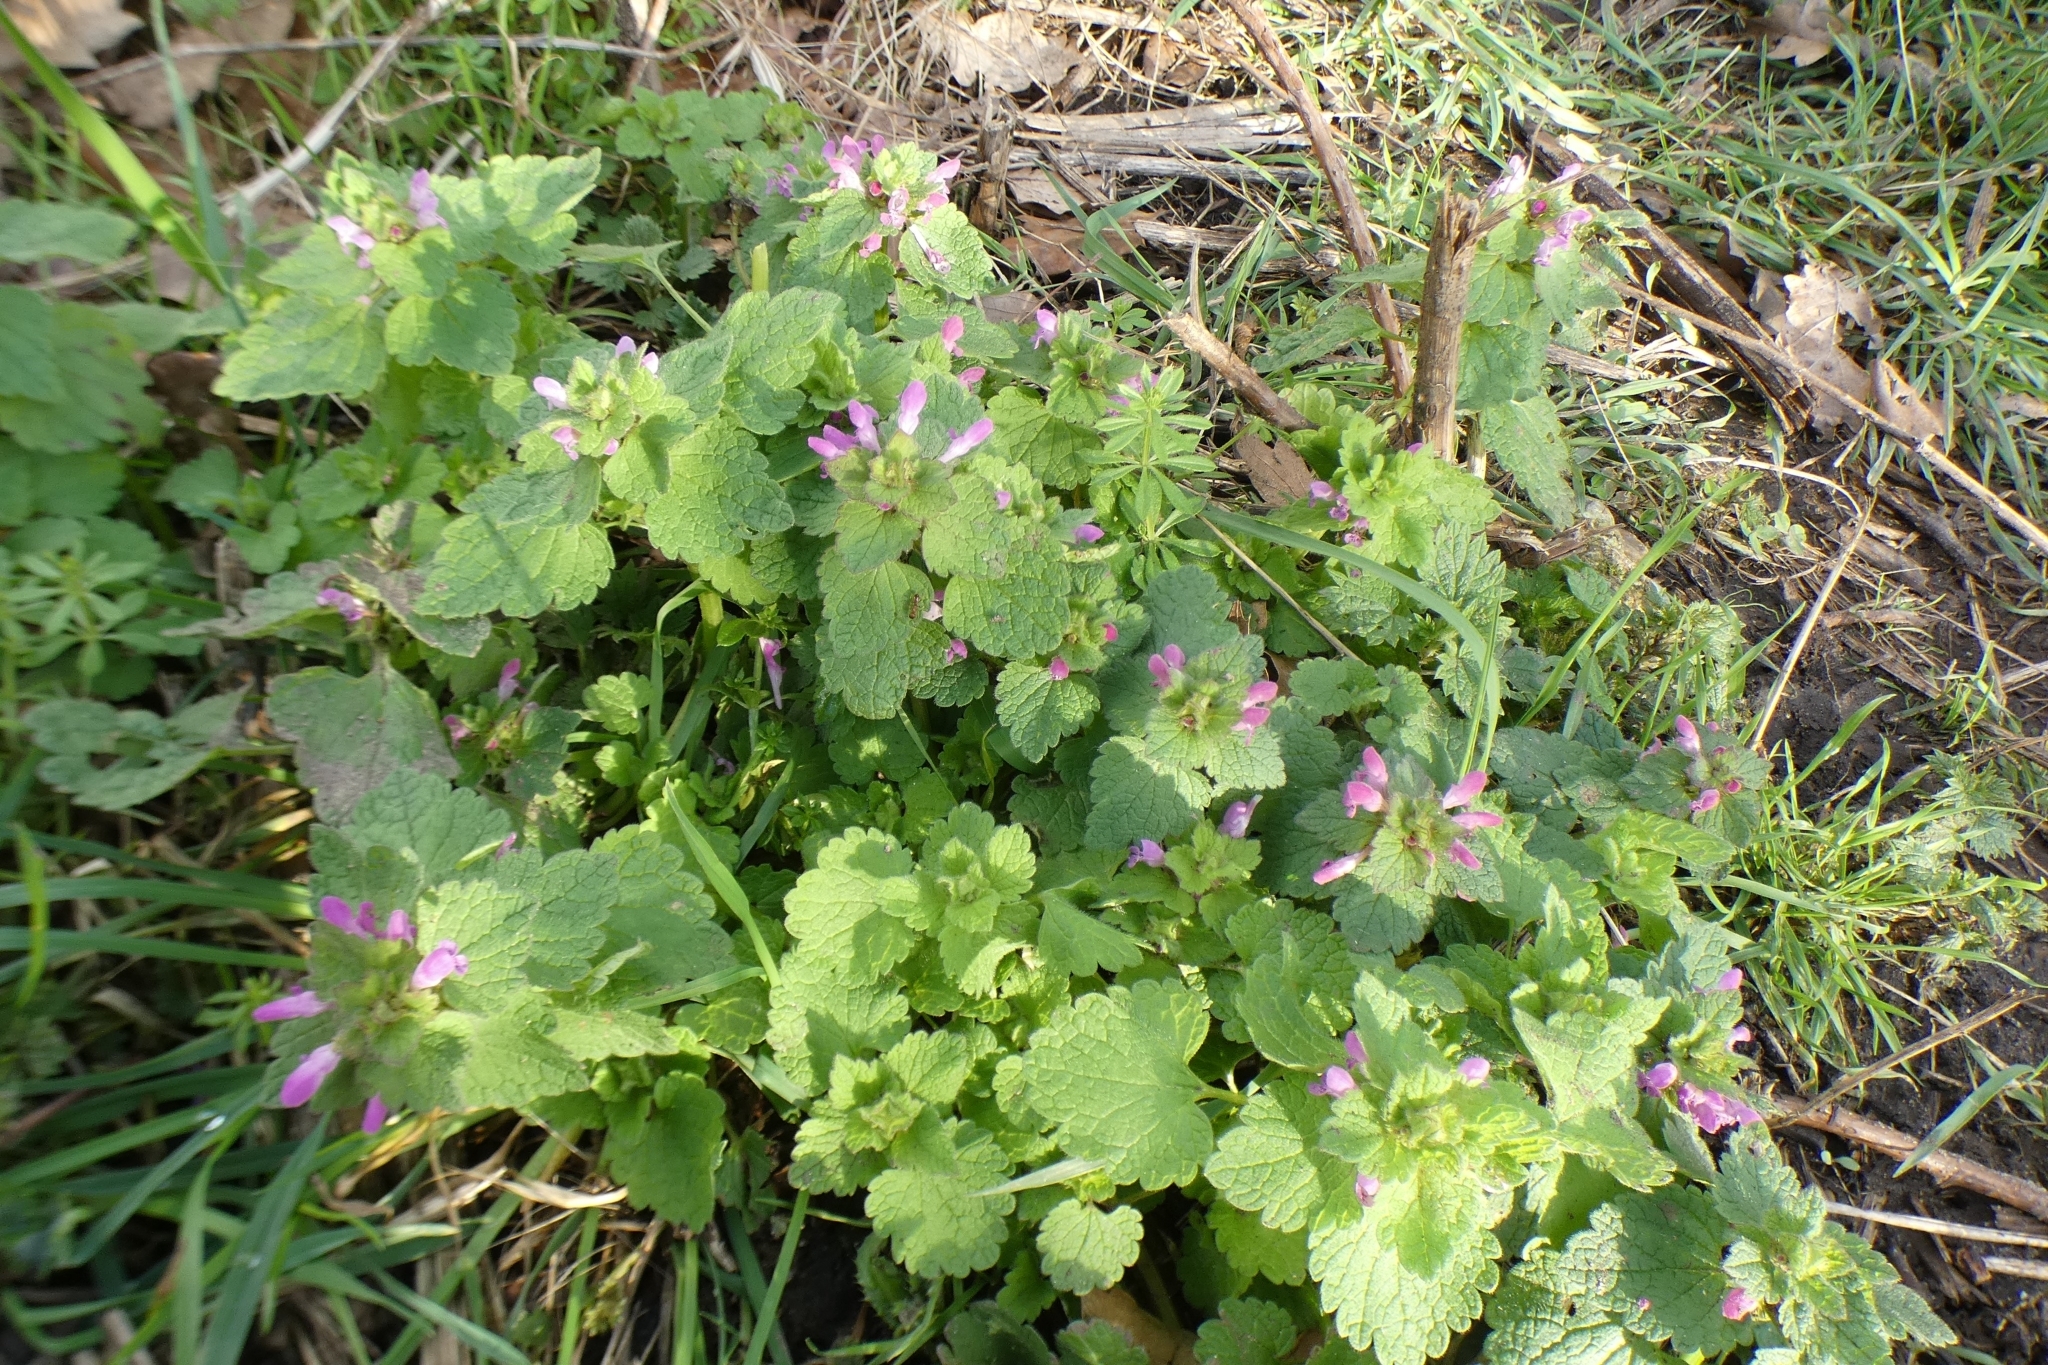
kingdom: Plantae
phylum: Tracheophyta
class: Magnoliopsida
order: Lamiales
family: Lamiaceae
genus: Lamium
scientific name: Lamium purpureum
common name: Red dead-nettle
